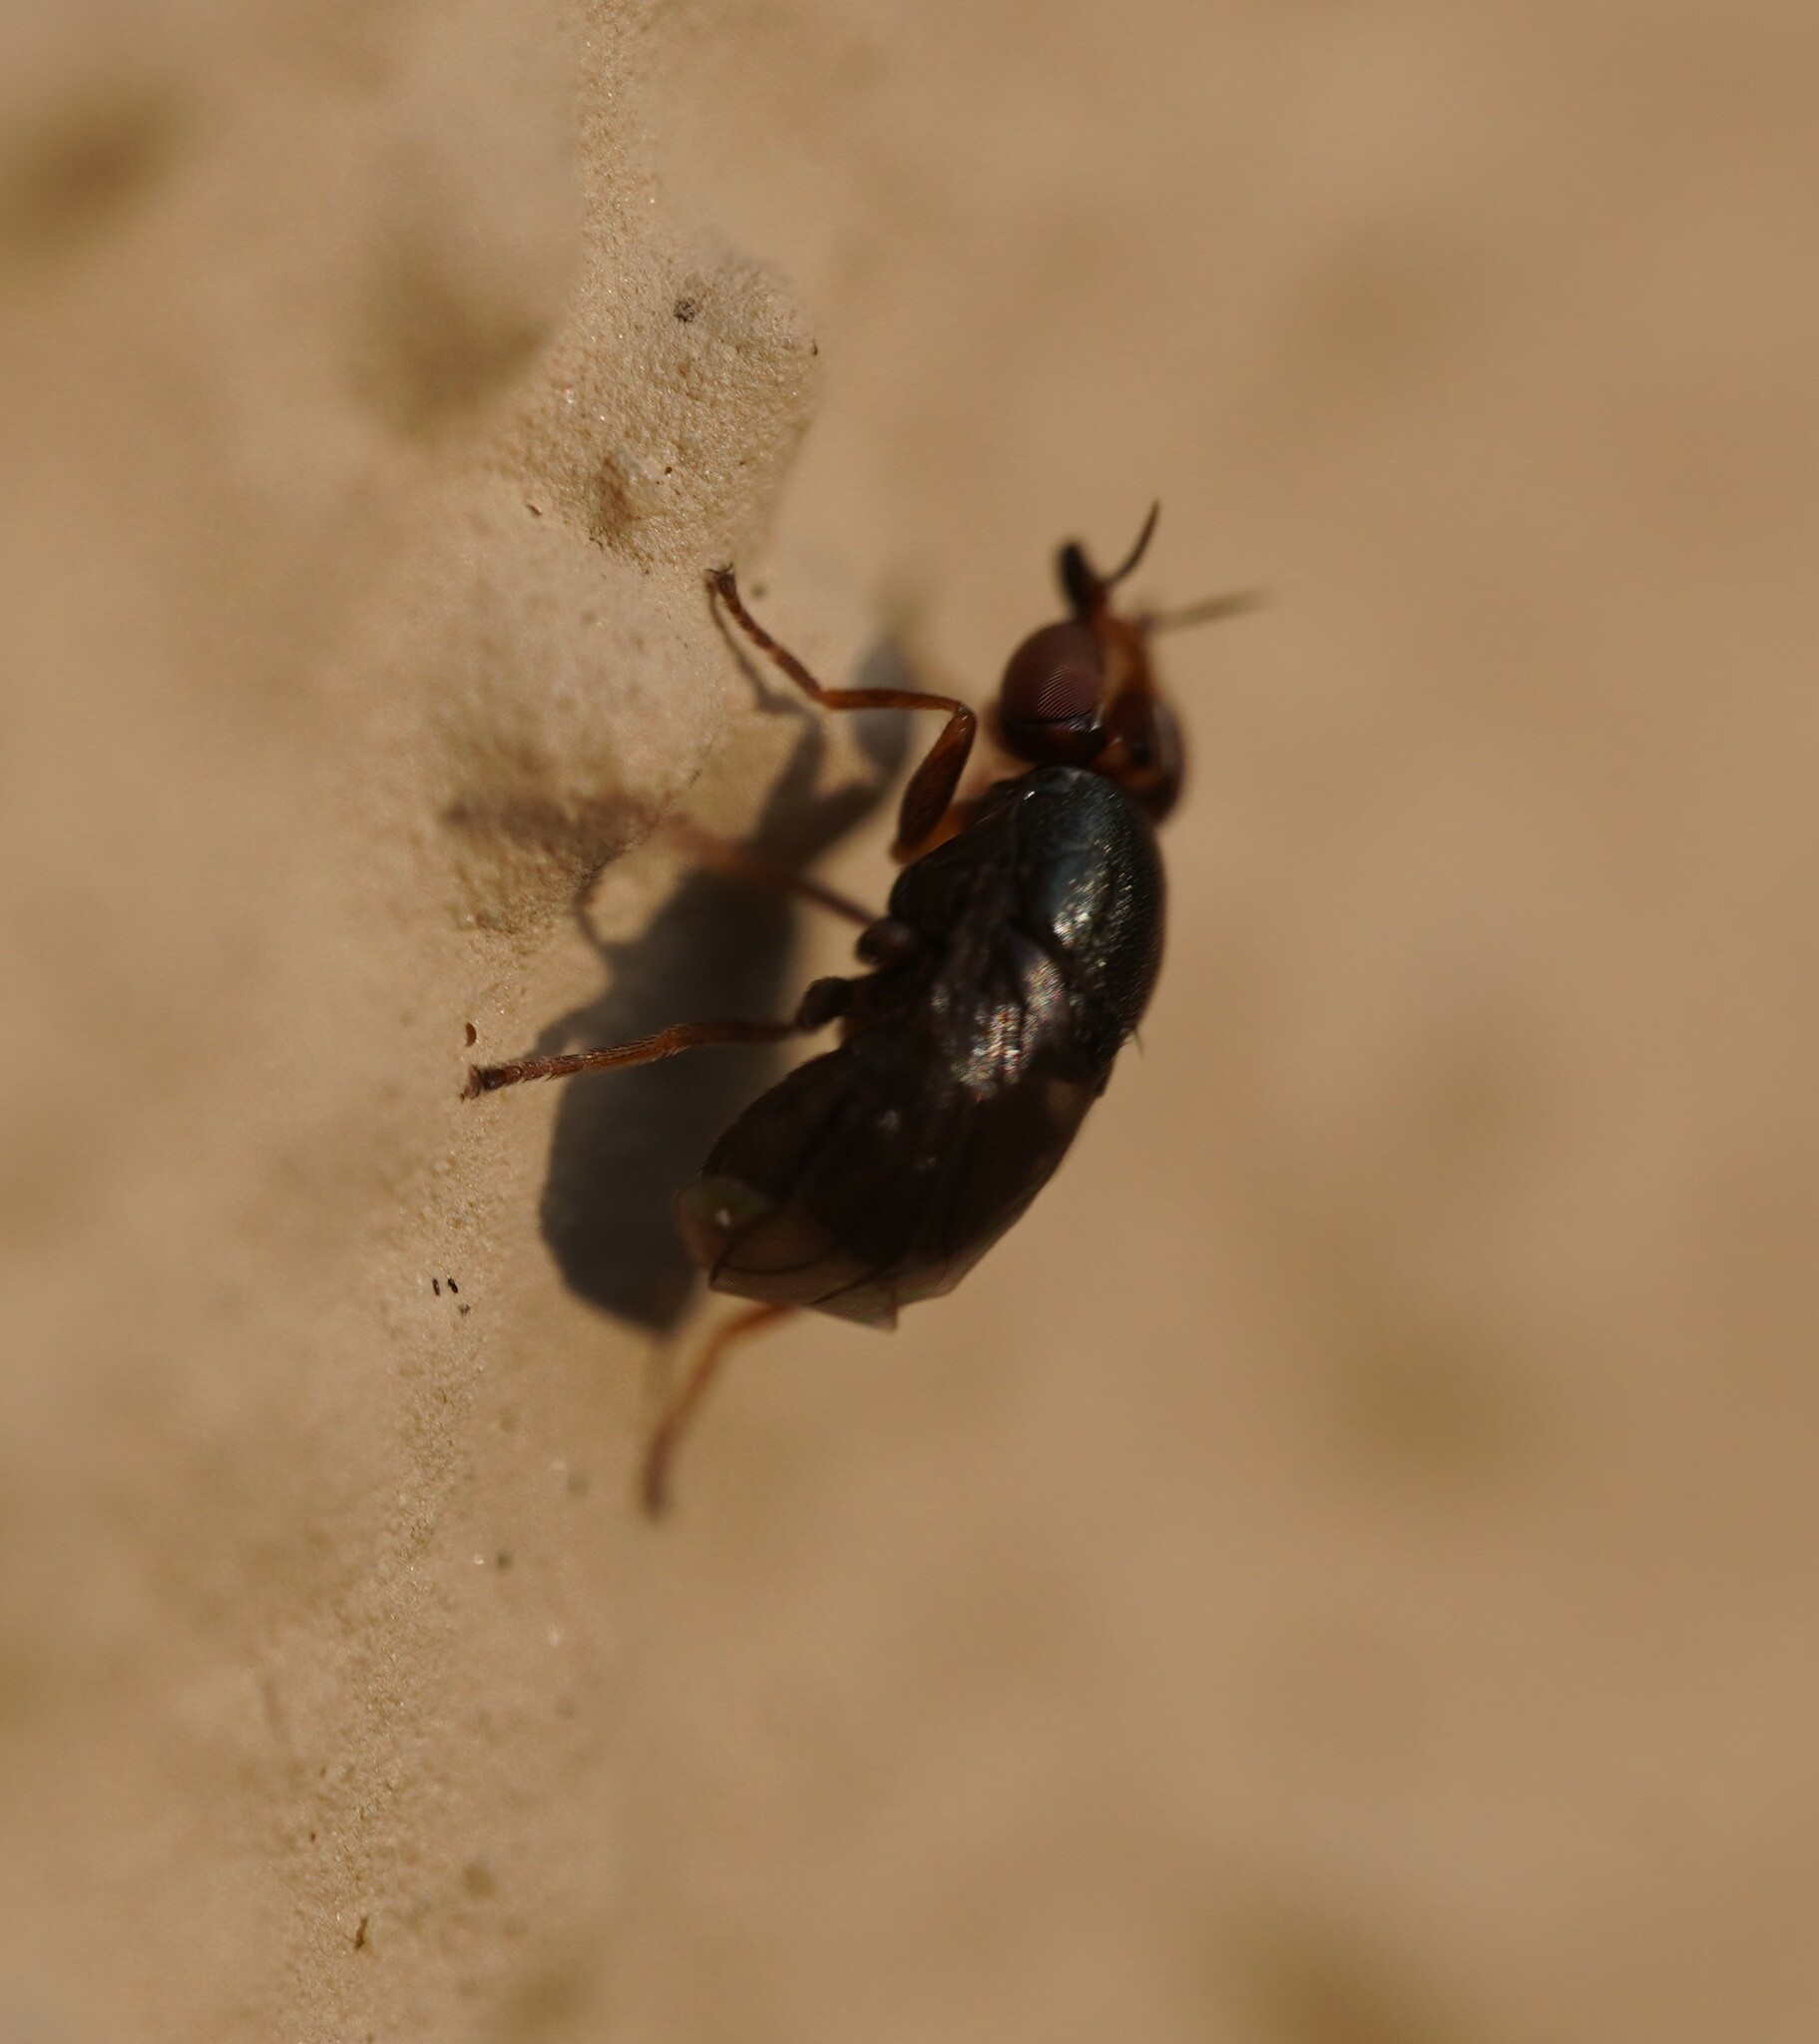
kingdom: Animalia
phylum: Arthropoda
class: Insecta
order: Diptera
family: Chloropidae
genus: Camarota
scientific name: Camarota curvipennis
